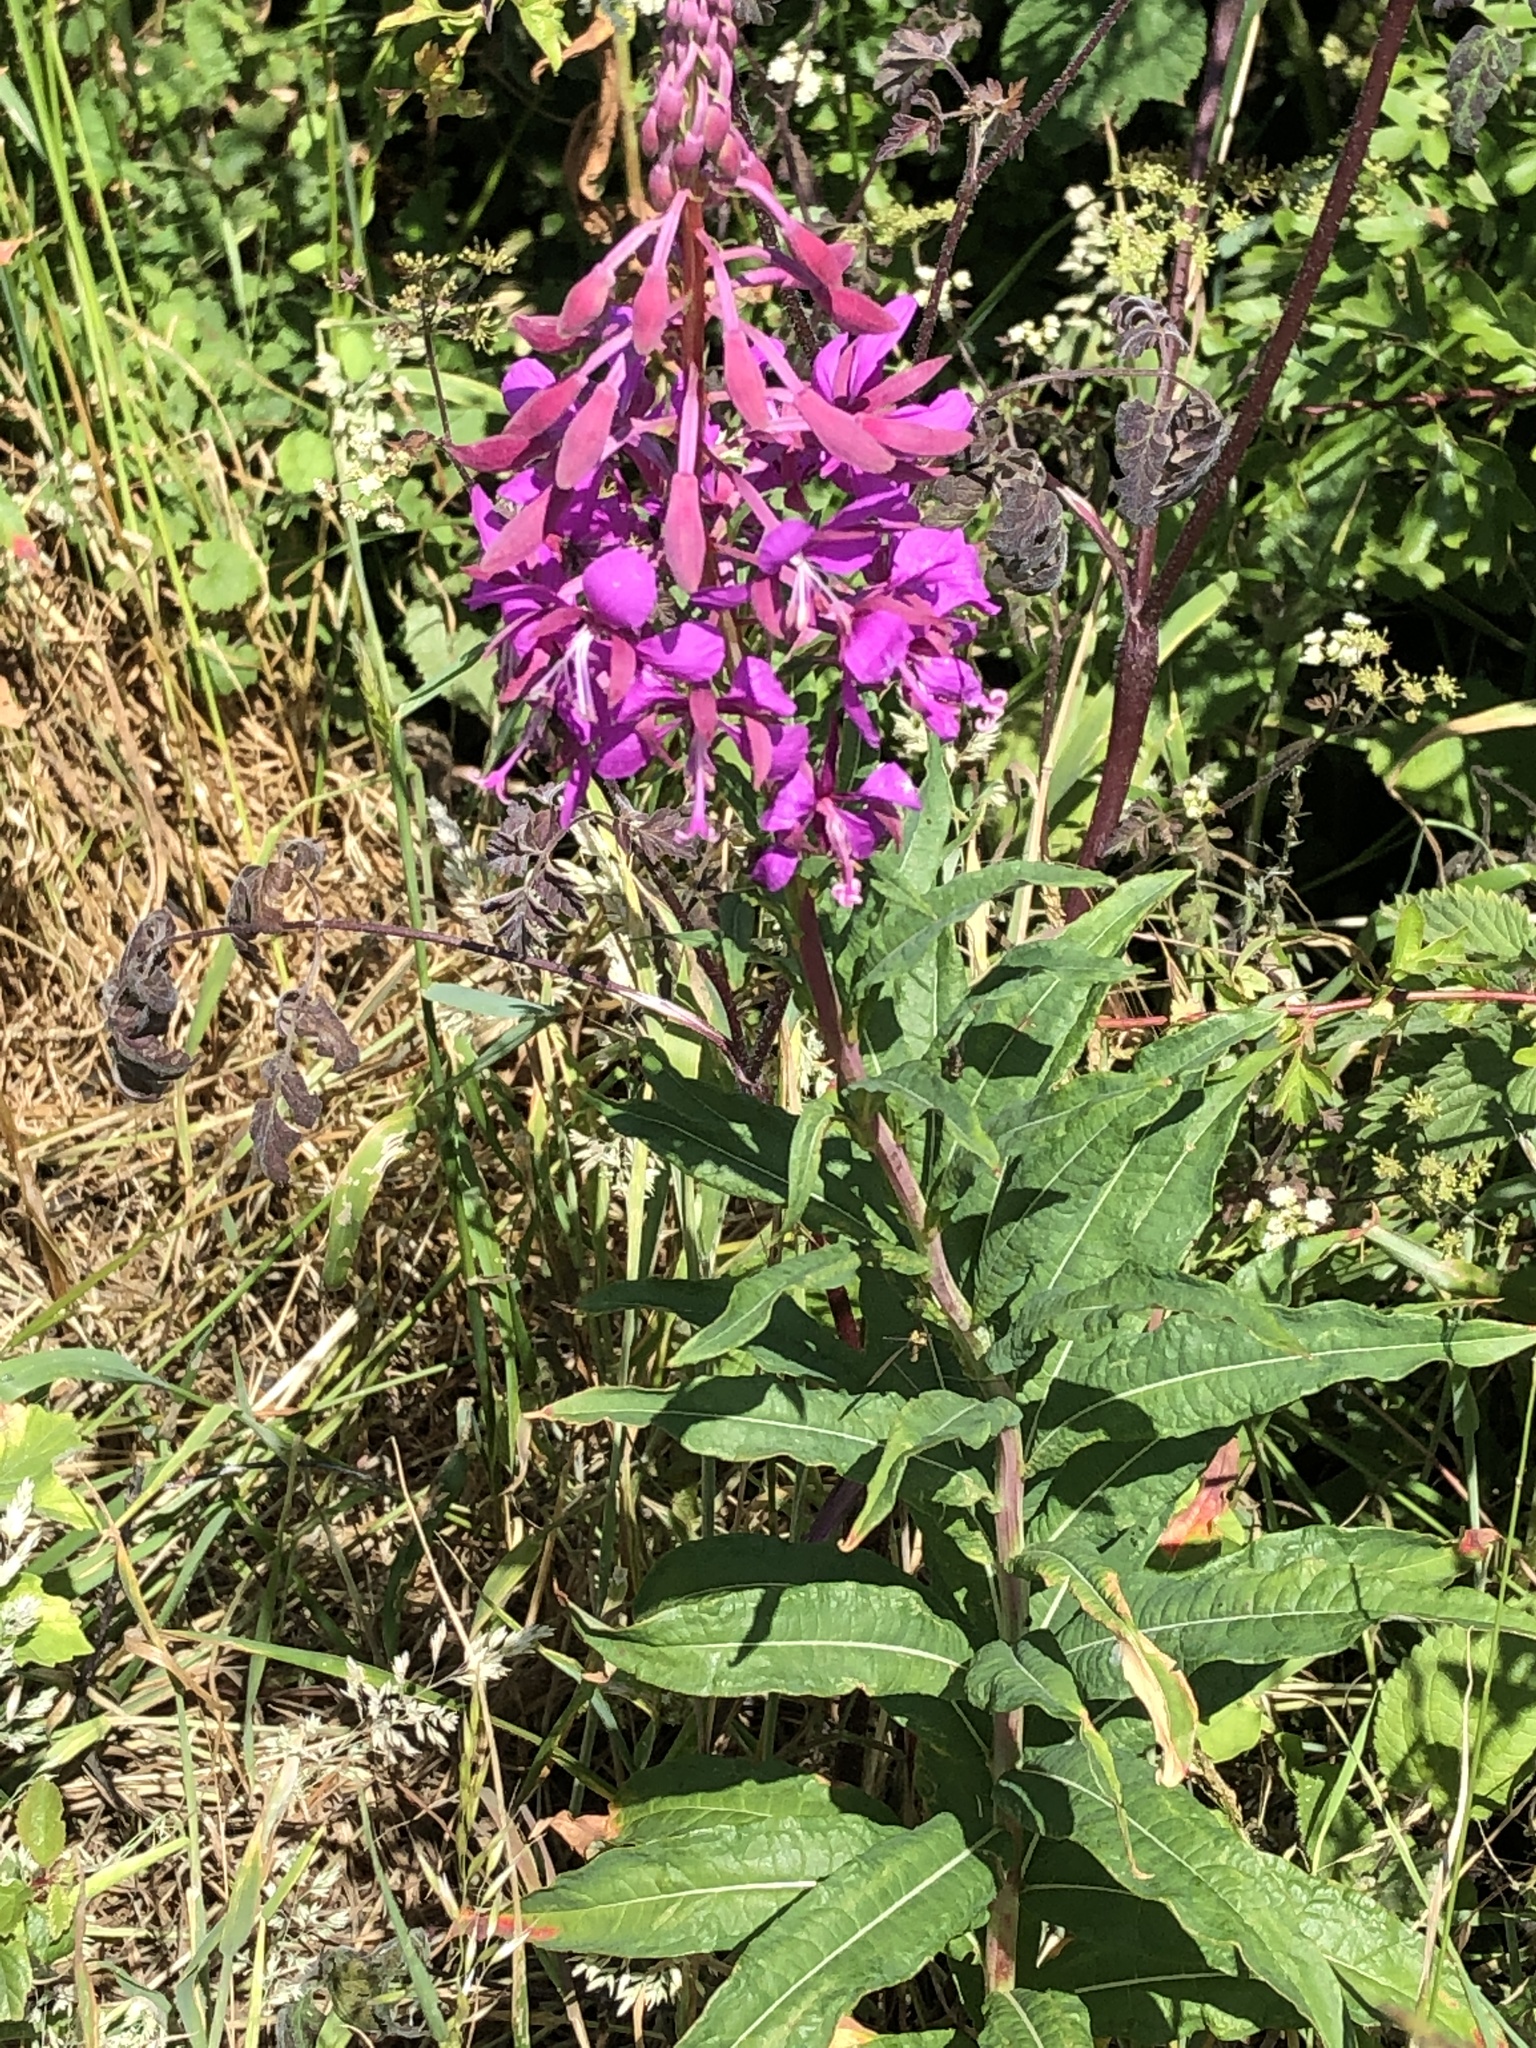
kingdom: Plantae
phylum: Tracheophyta
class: Magnoliopsida
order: Myrtales
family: Onagraceae
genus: Chamaenerion
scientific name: Chamaenerion angustifolium
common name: Fireweed
